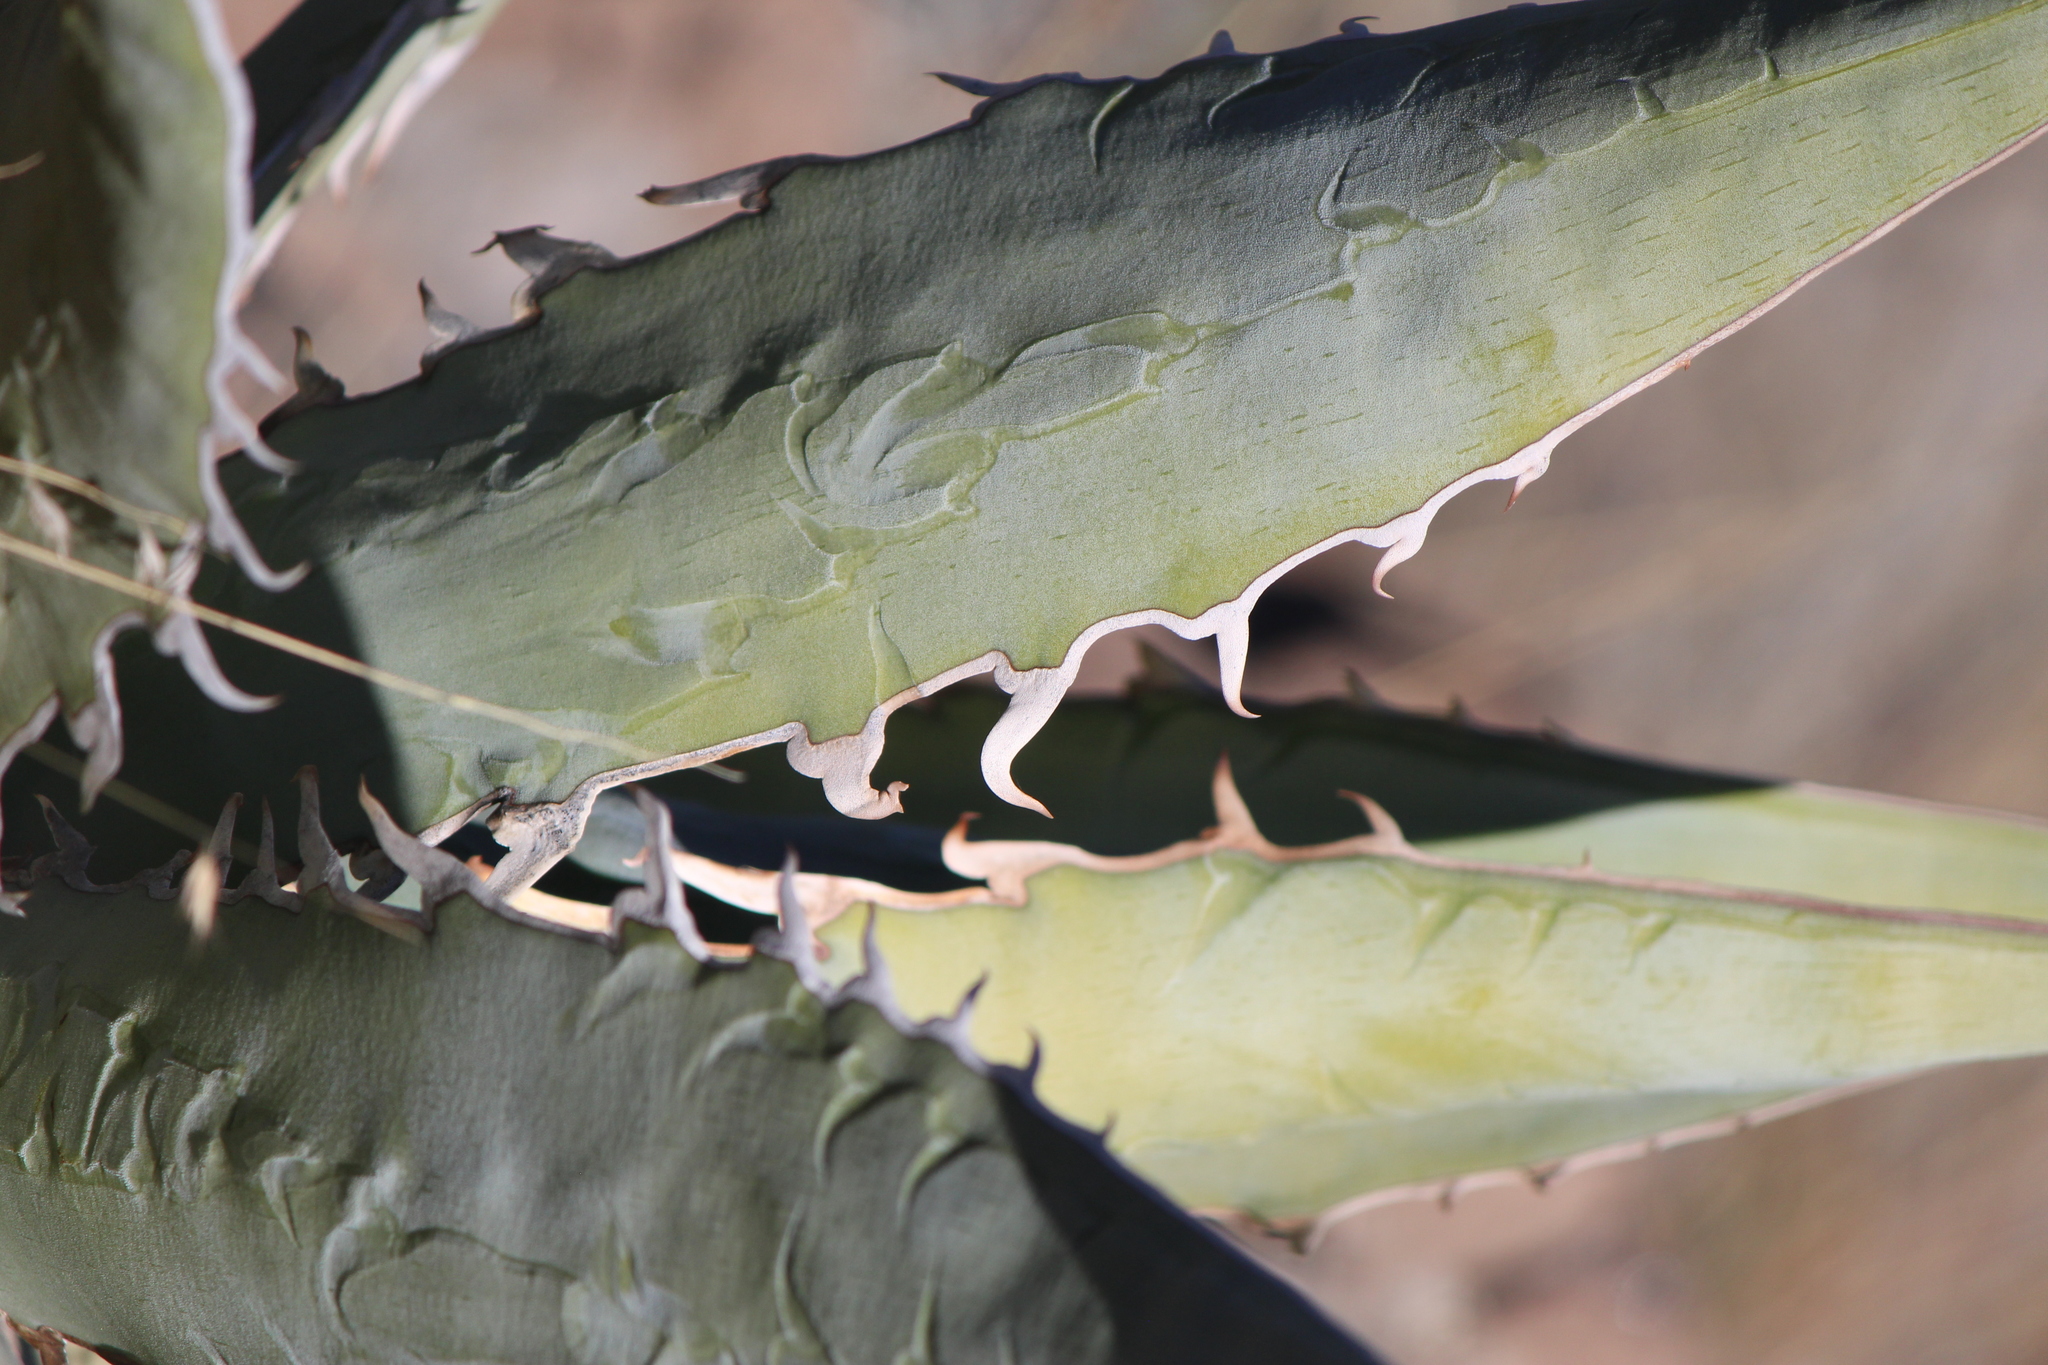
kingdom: Plantae
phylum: Tracheophyta
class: Liliopsida
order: Asparagales
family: Asparagaceae
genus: Agave
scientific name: Agave xylonacantha
